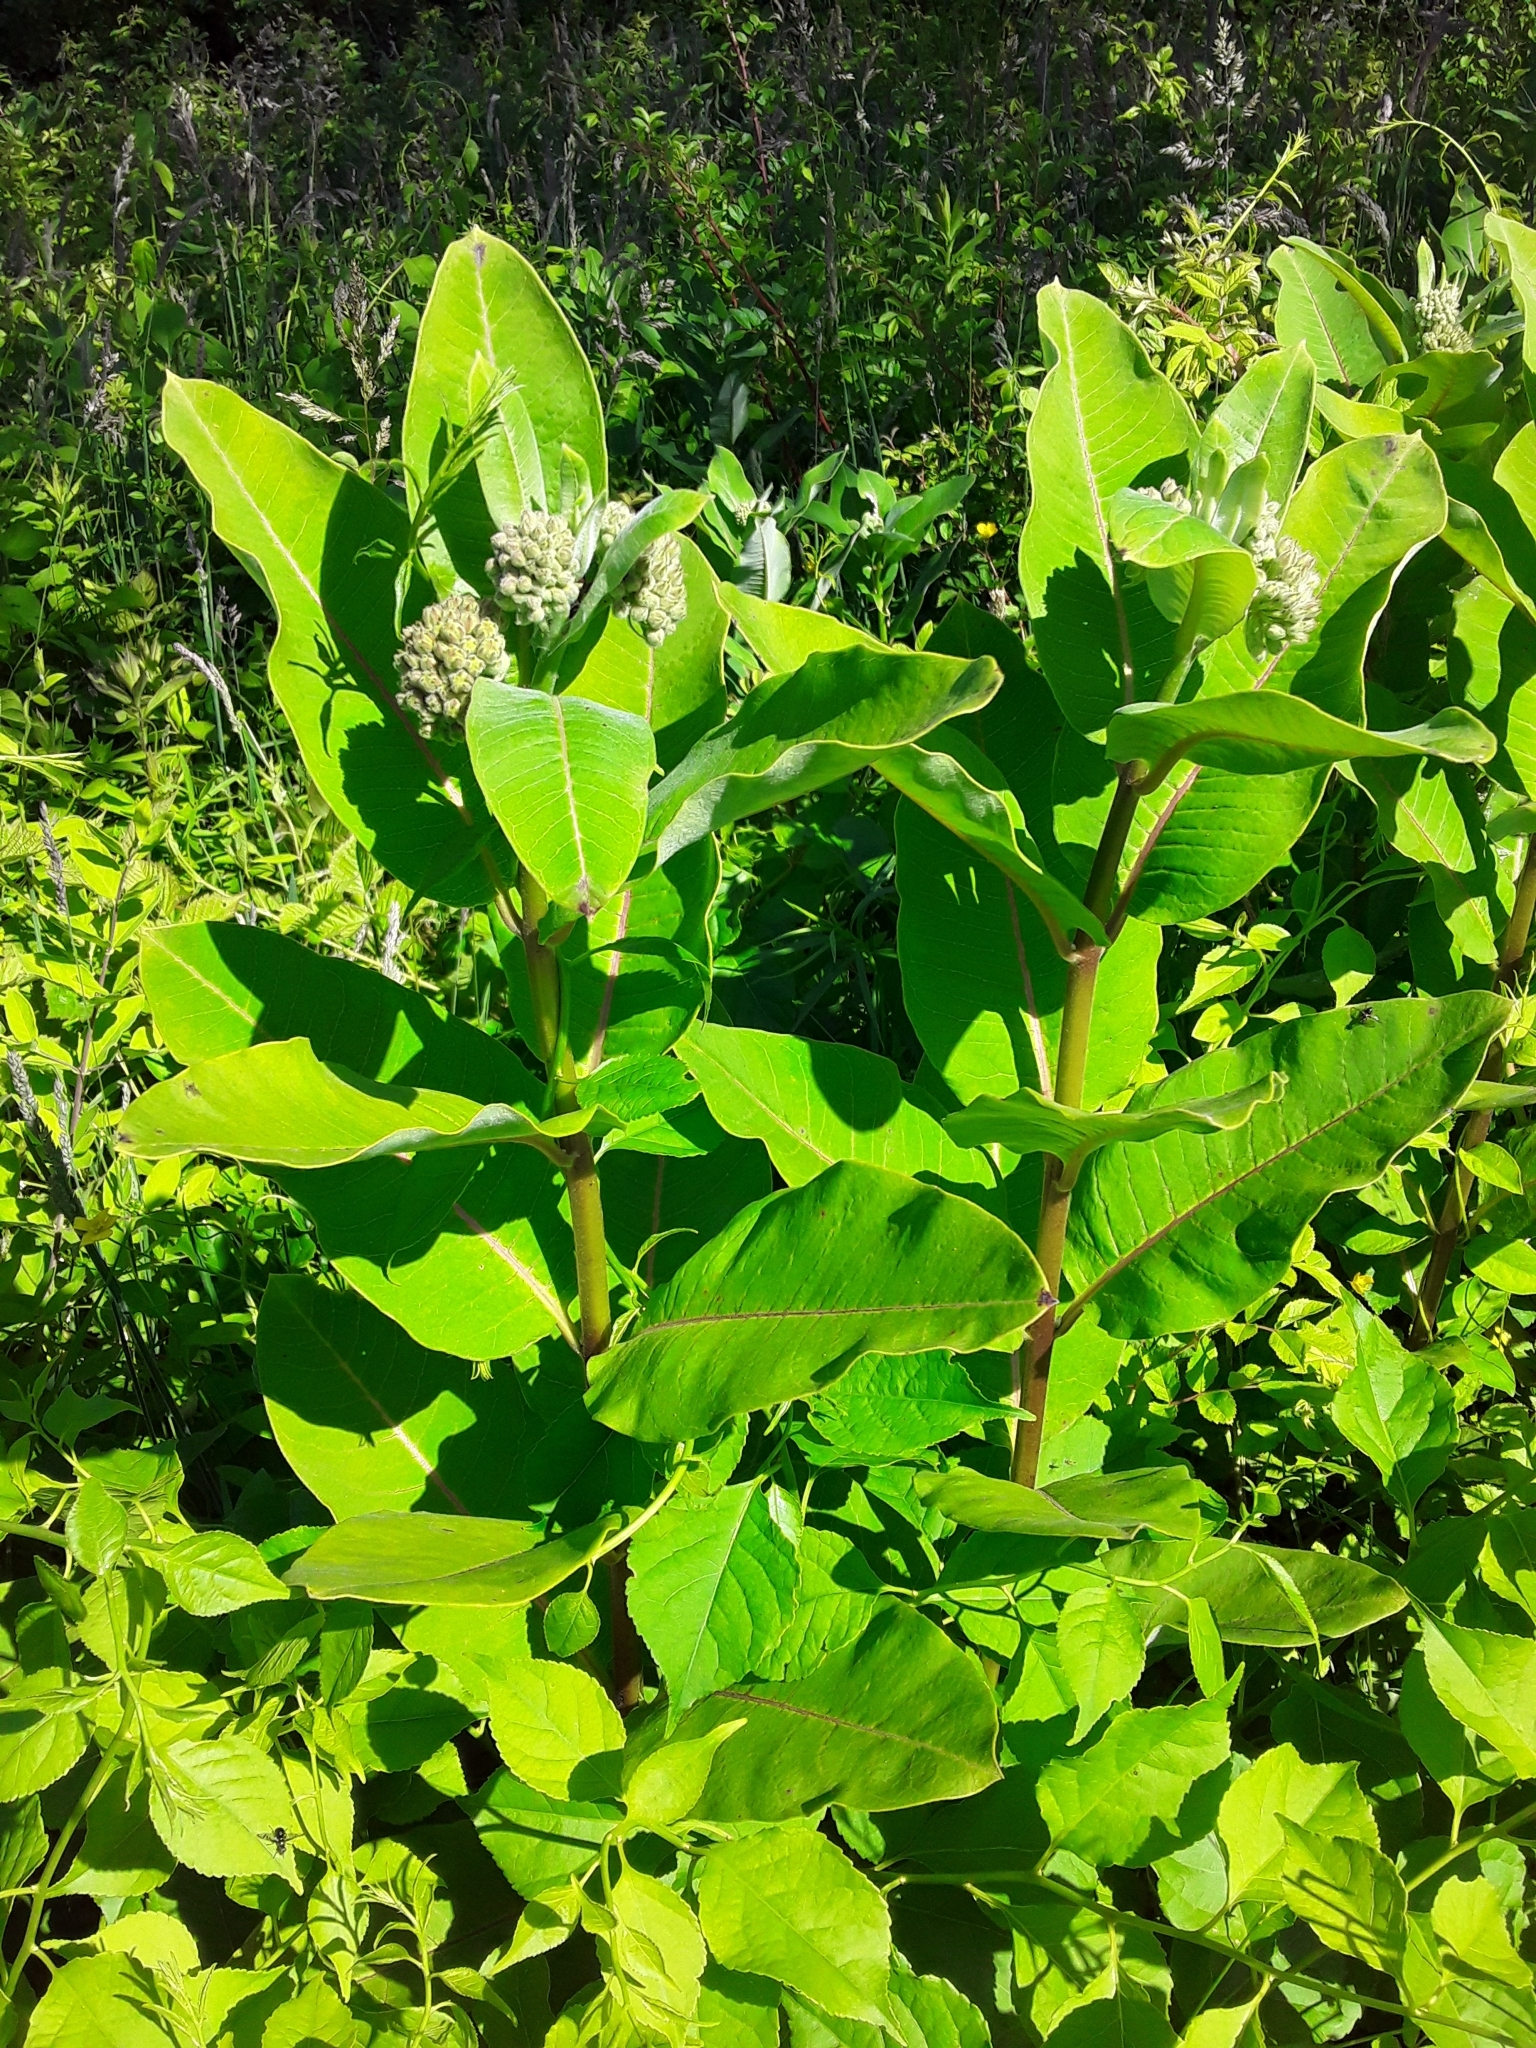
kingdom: Plantae
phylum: Tracheophyta
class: Magnoliopsida
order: Gentianales
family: Apocynaceae
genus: Asclepias
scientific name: Asclepias syriaca
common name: Common milkweed
